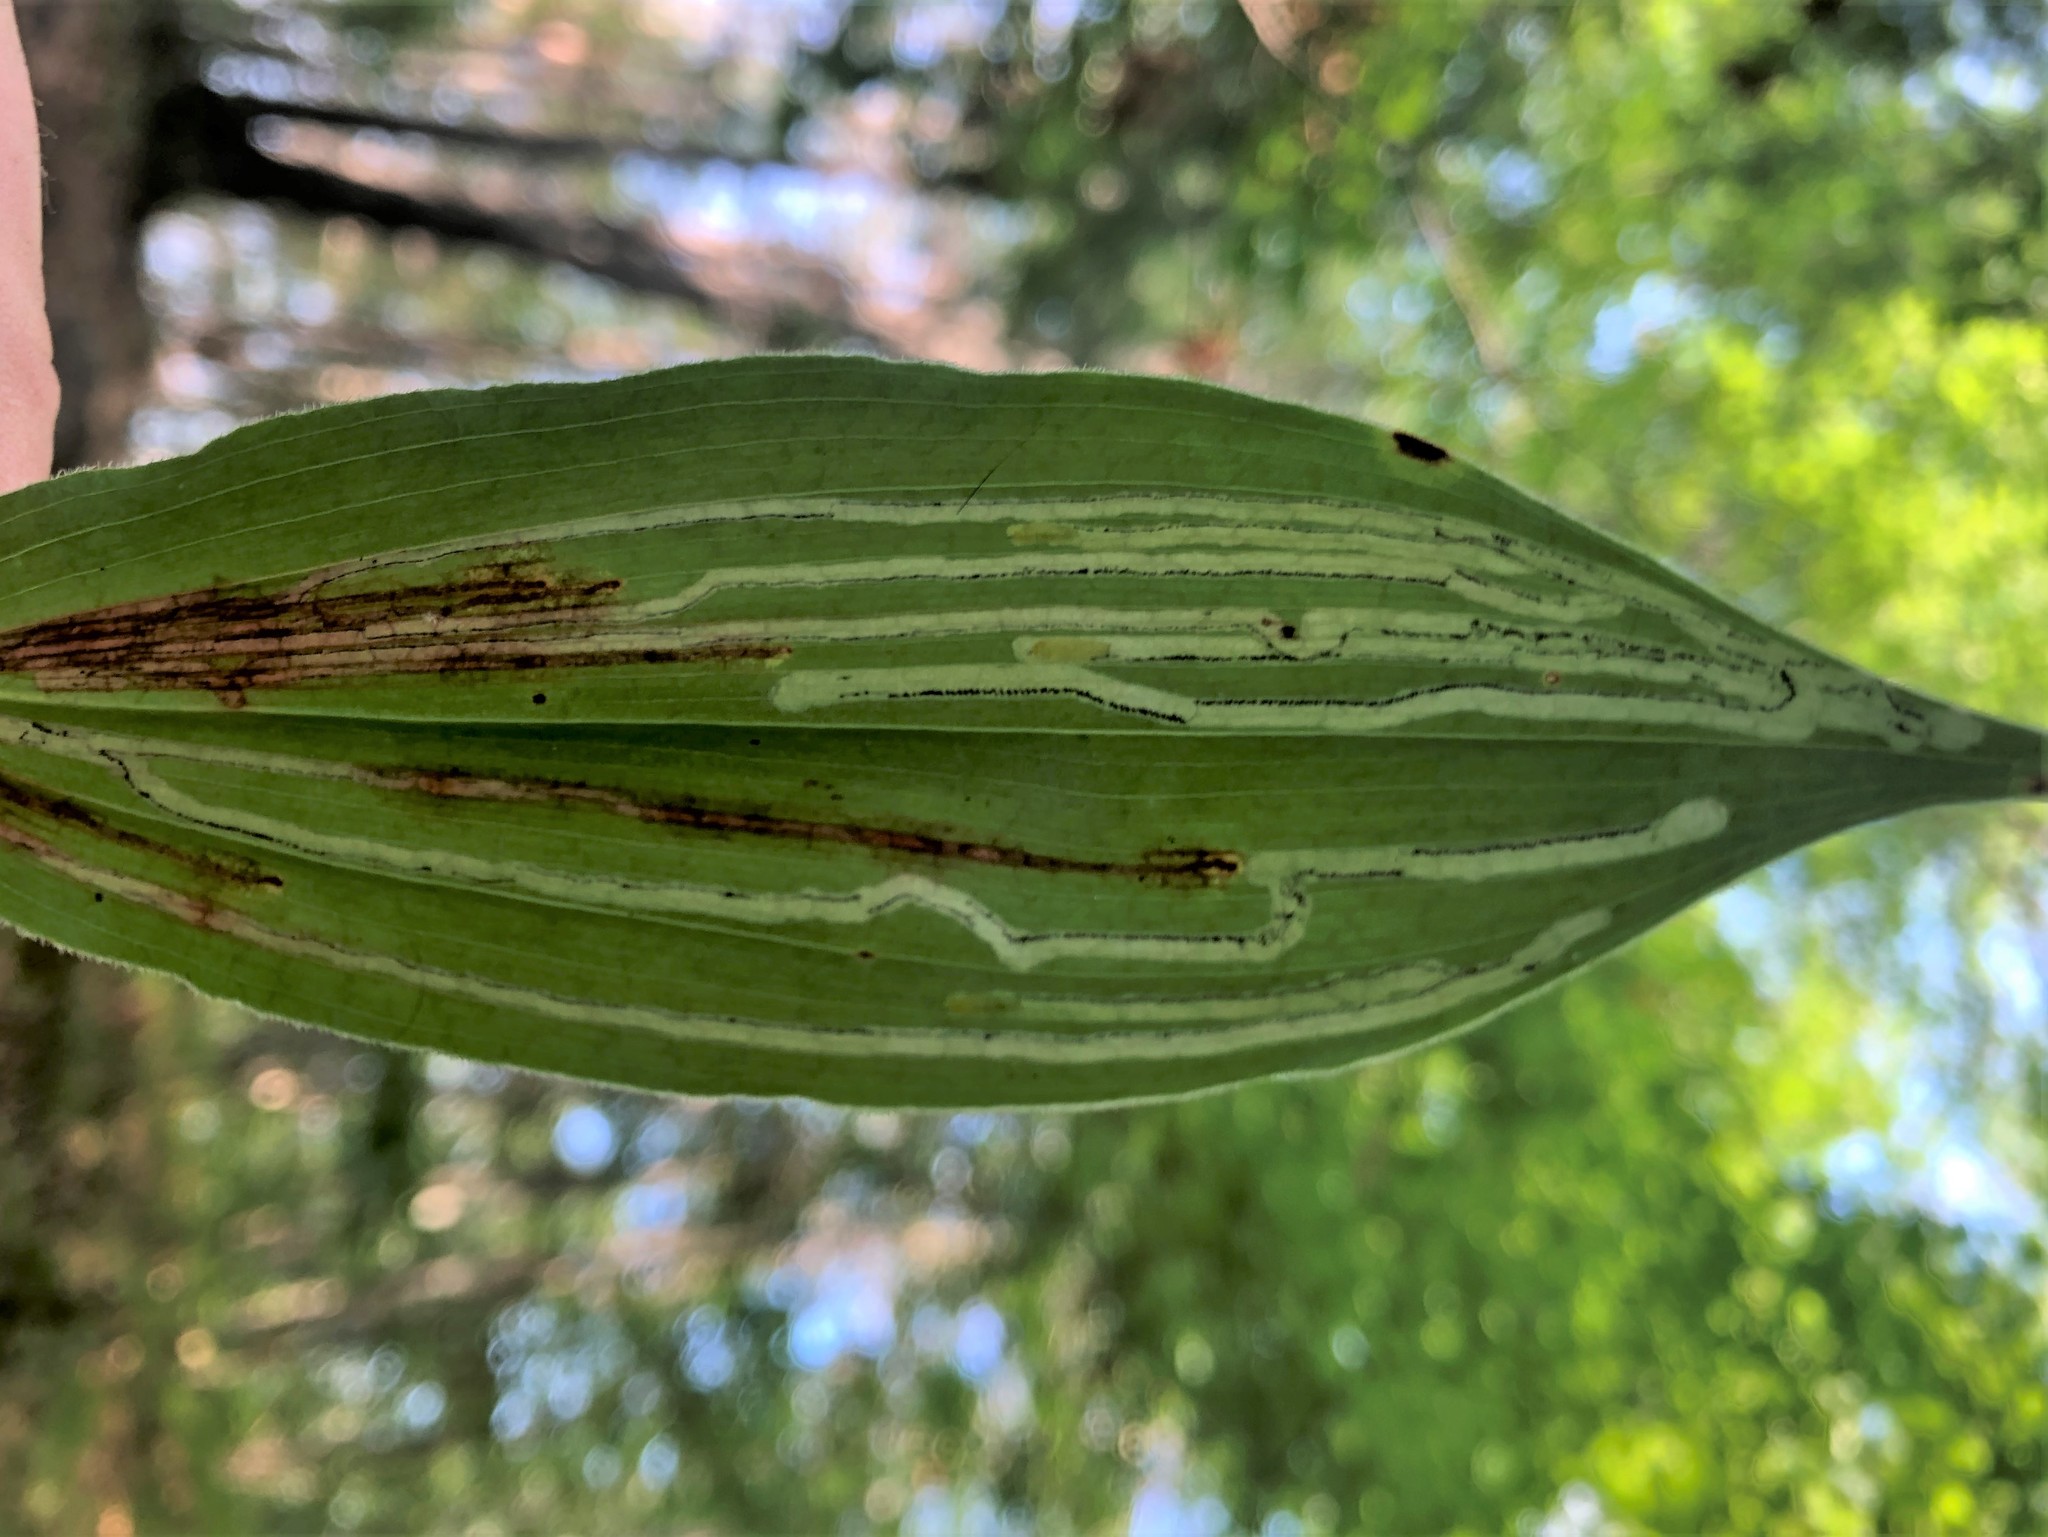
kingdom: Animalia
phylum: Arthropoda
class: Insecta
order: Diptera
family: Agromyzidae
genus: Liriomyza
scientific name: Liriomyza smilacinae
